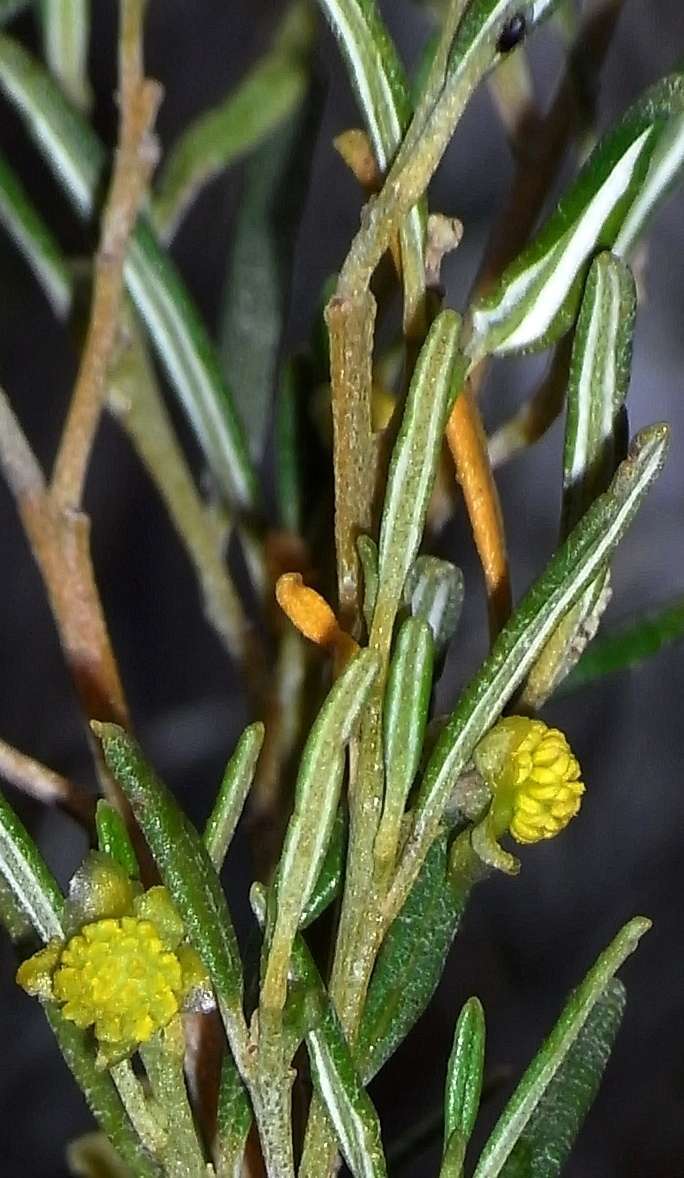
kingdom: Plantae
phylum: Tracheophyta
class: Magnoliopsida
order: Malpighiales
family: Euphorbiaceae
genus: Beyeria
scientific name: Beyeria lechenaultii
